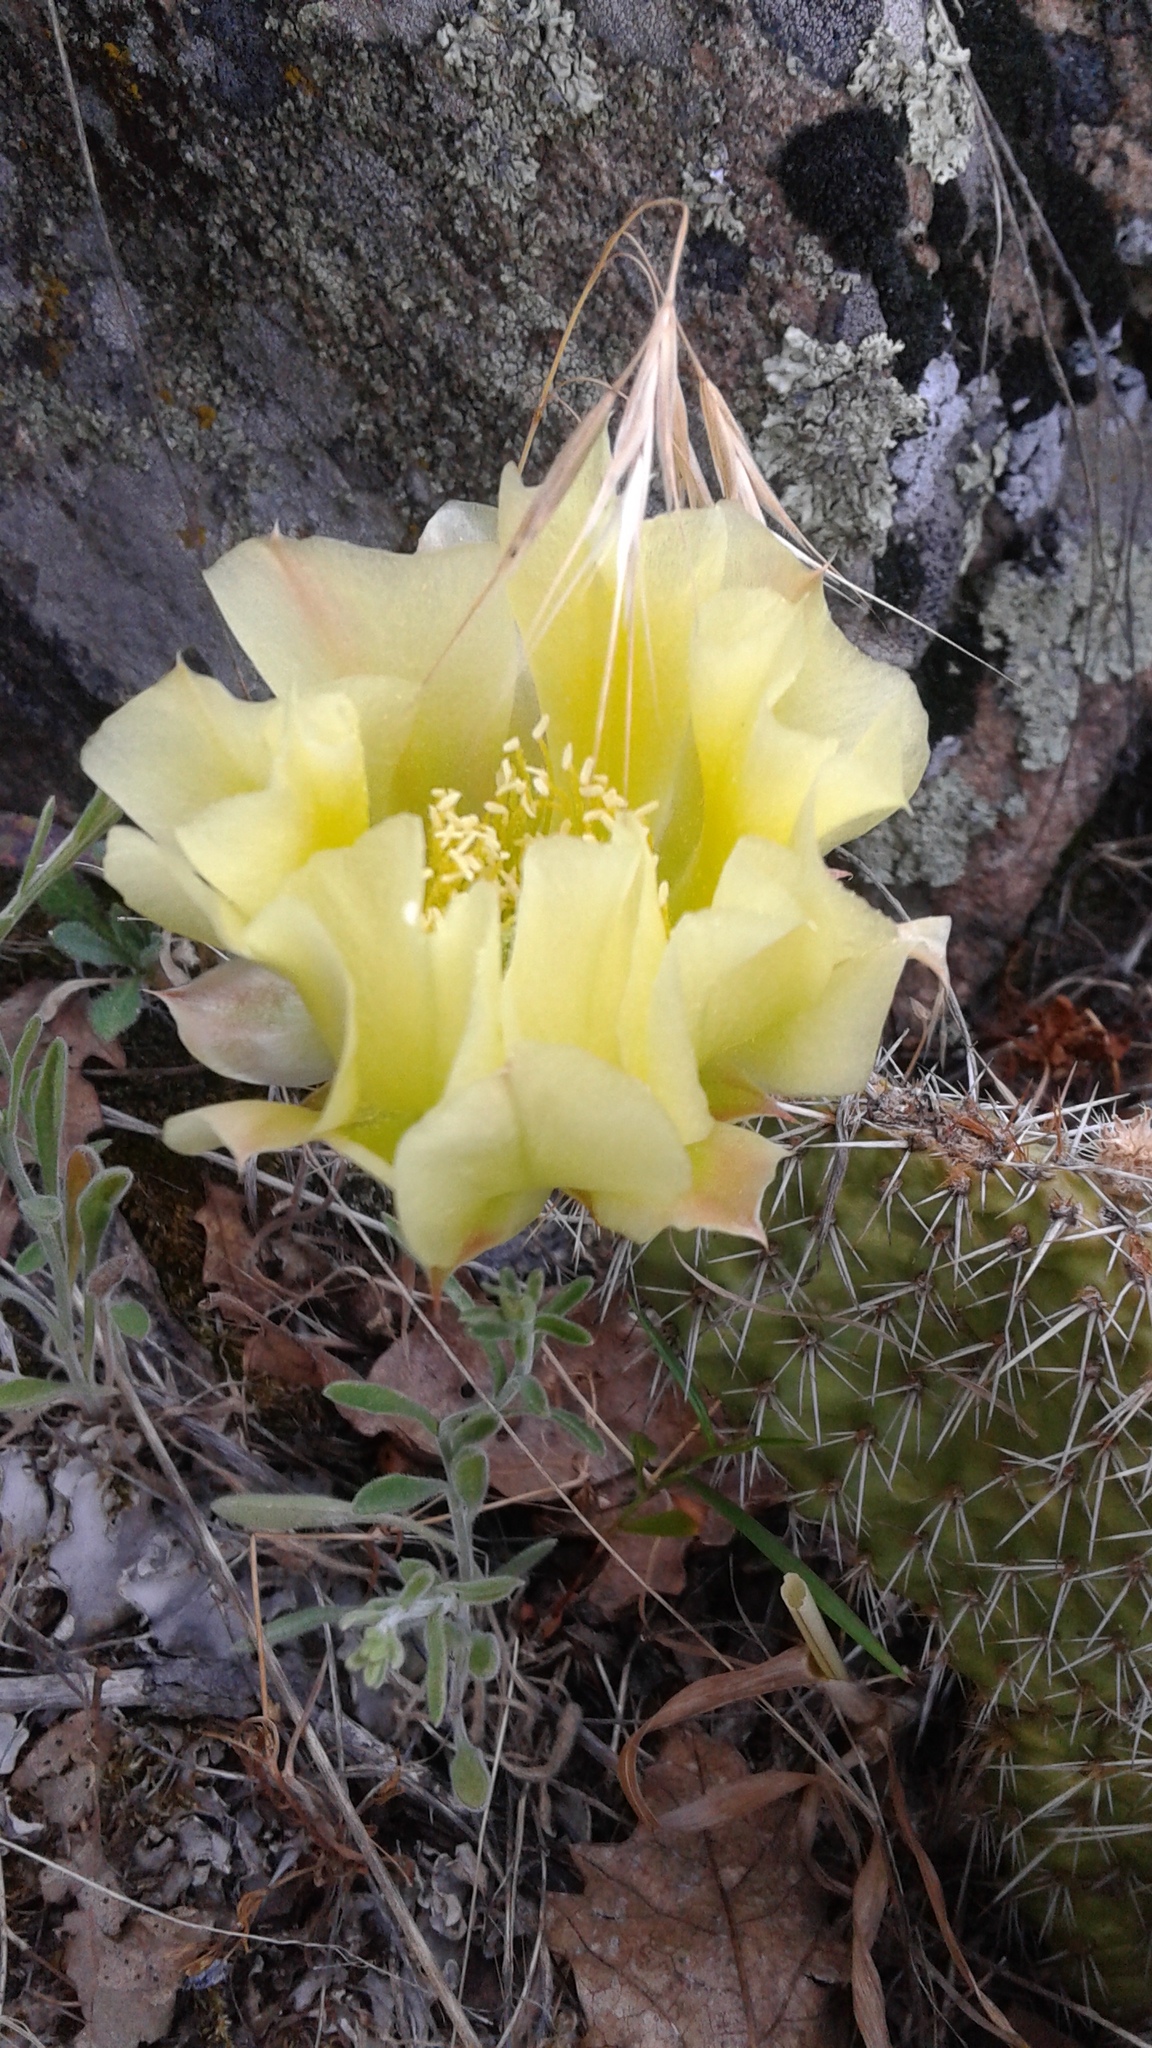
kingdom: Plantae
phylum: Tracheophyta
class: Magnoliopsida
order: Caryophyllales
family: Cactaceae
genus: Opuntia
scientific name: Opuntia polyacantha
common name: Plains prickly-pear
